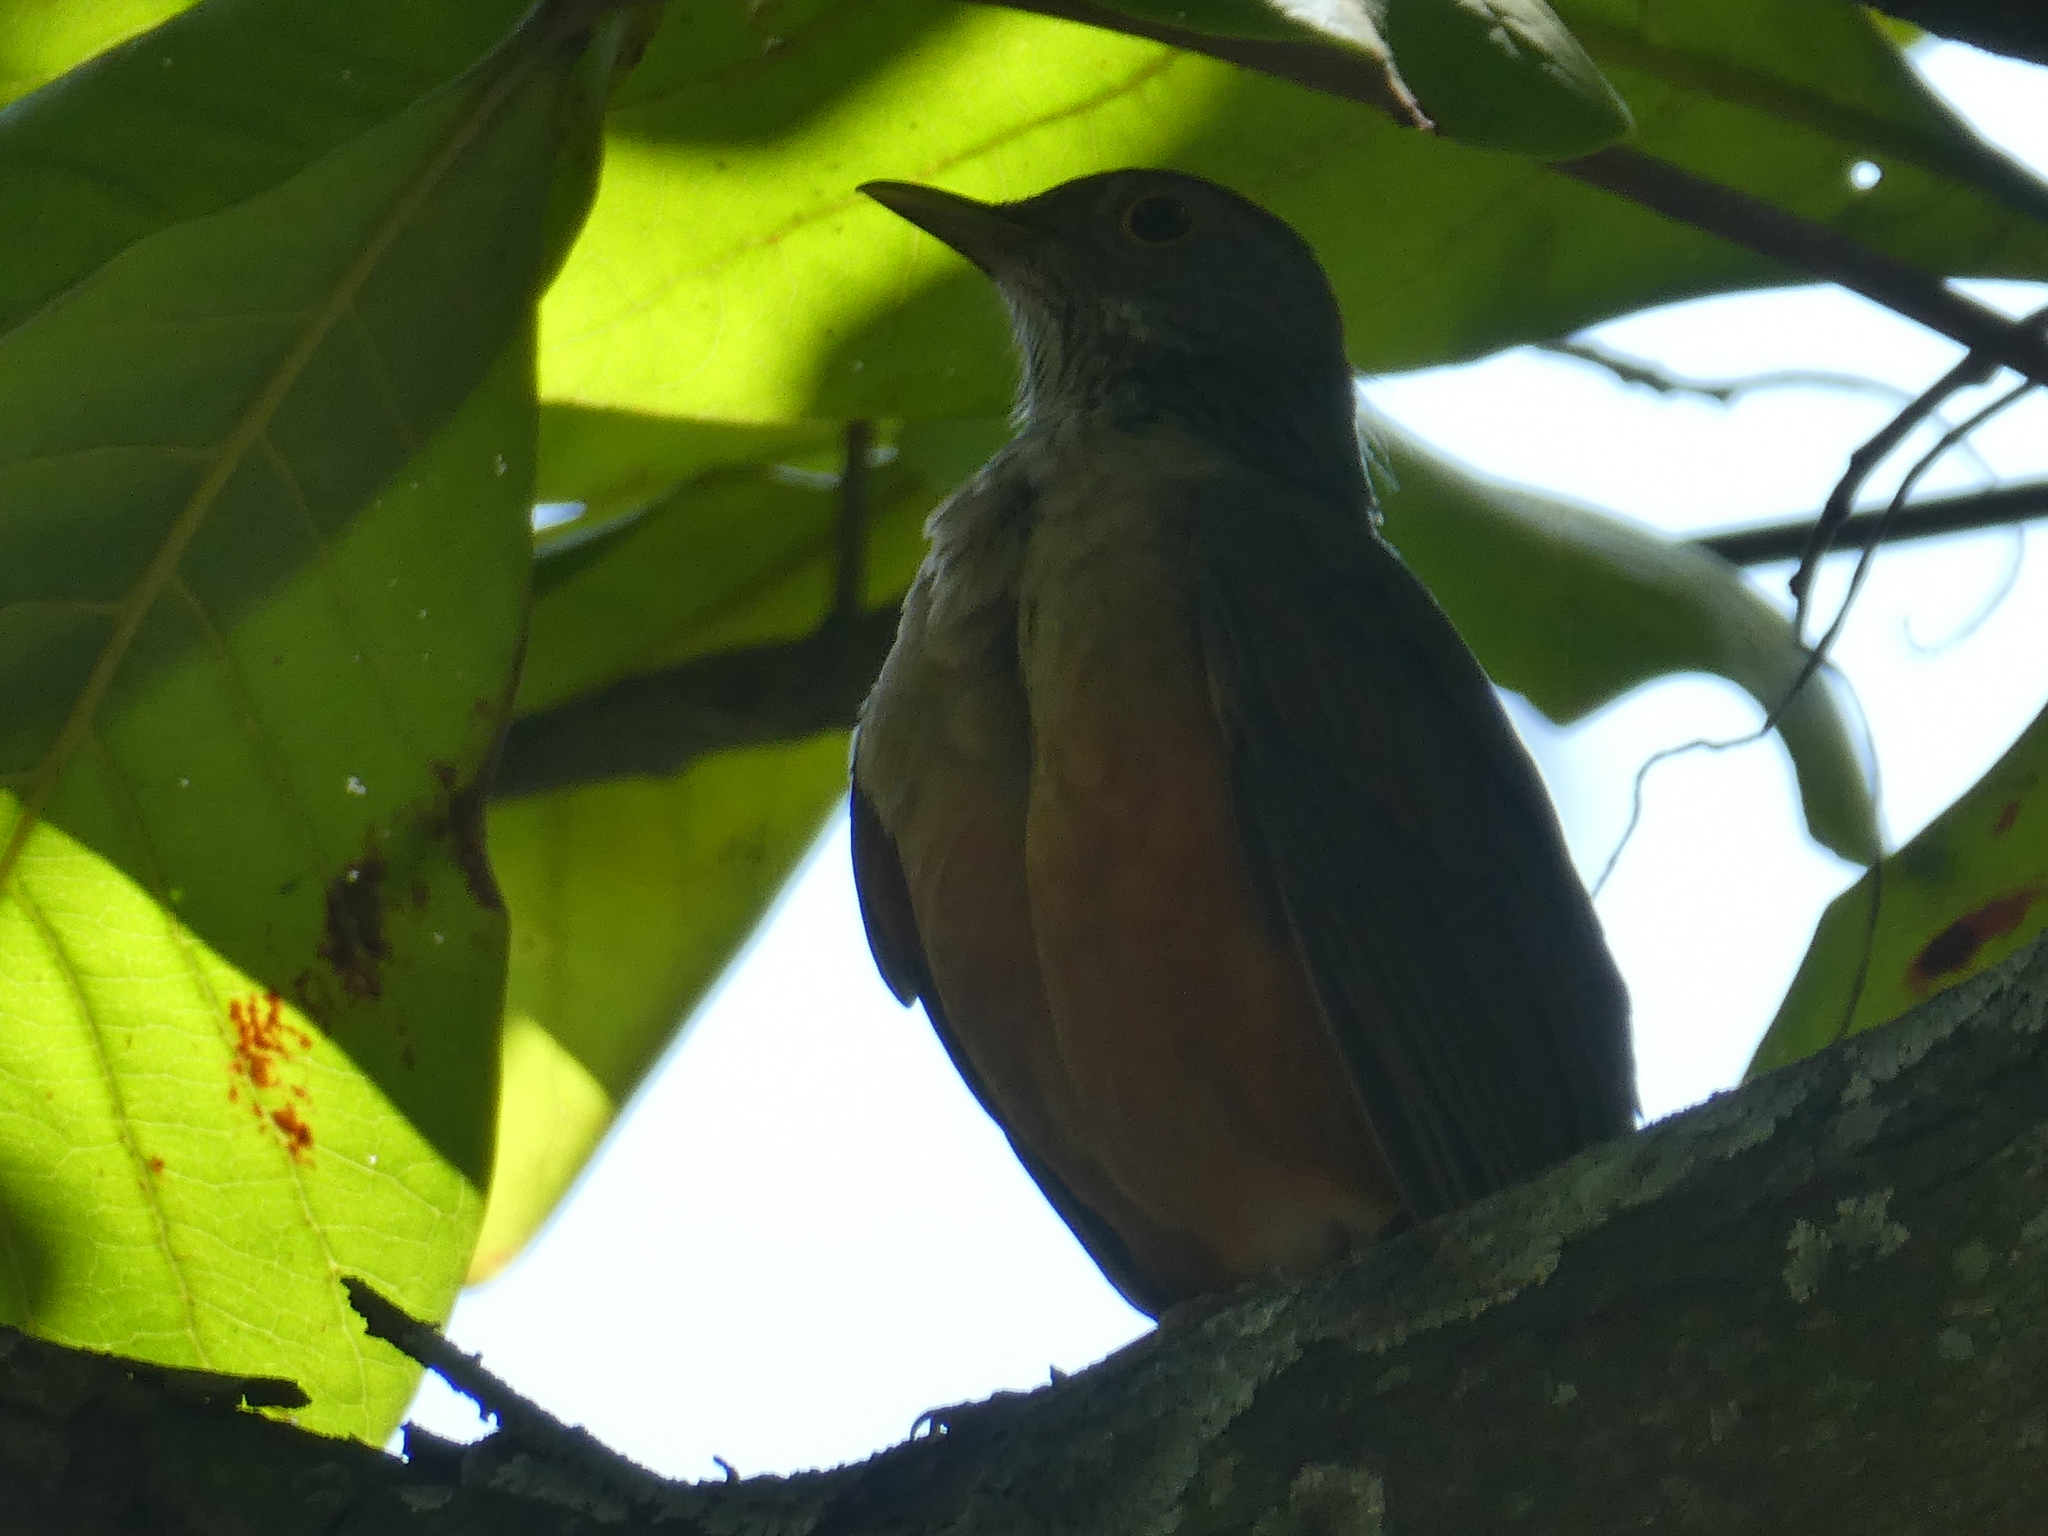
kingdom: Animalia
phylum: Chordata
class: Aves
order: Passeriformes
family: Turdidae
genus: Turdus
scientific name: Turdus rufiventris
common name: Rufous-bellied thrush
